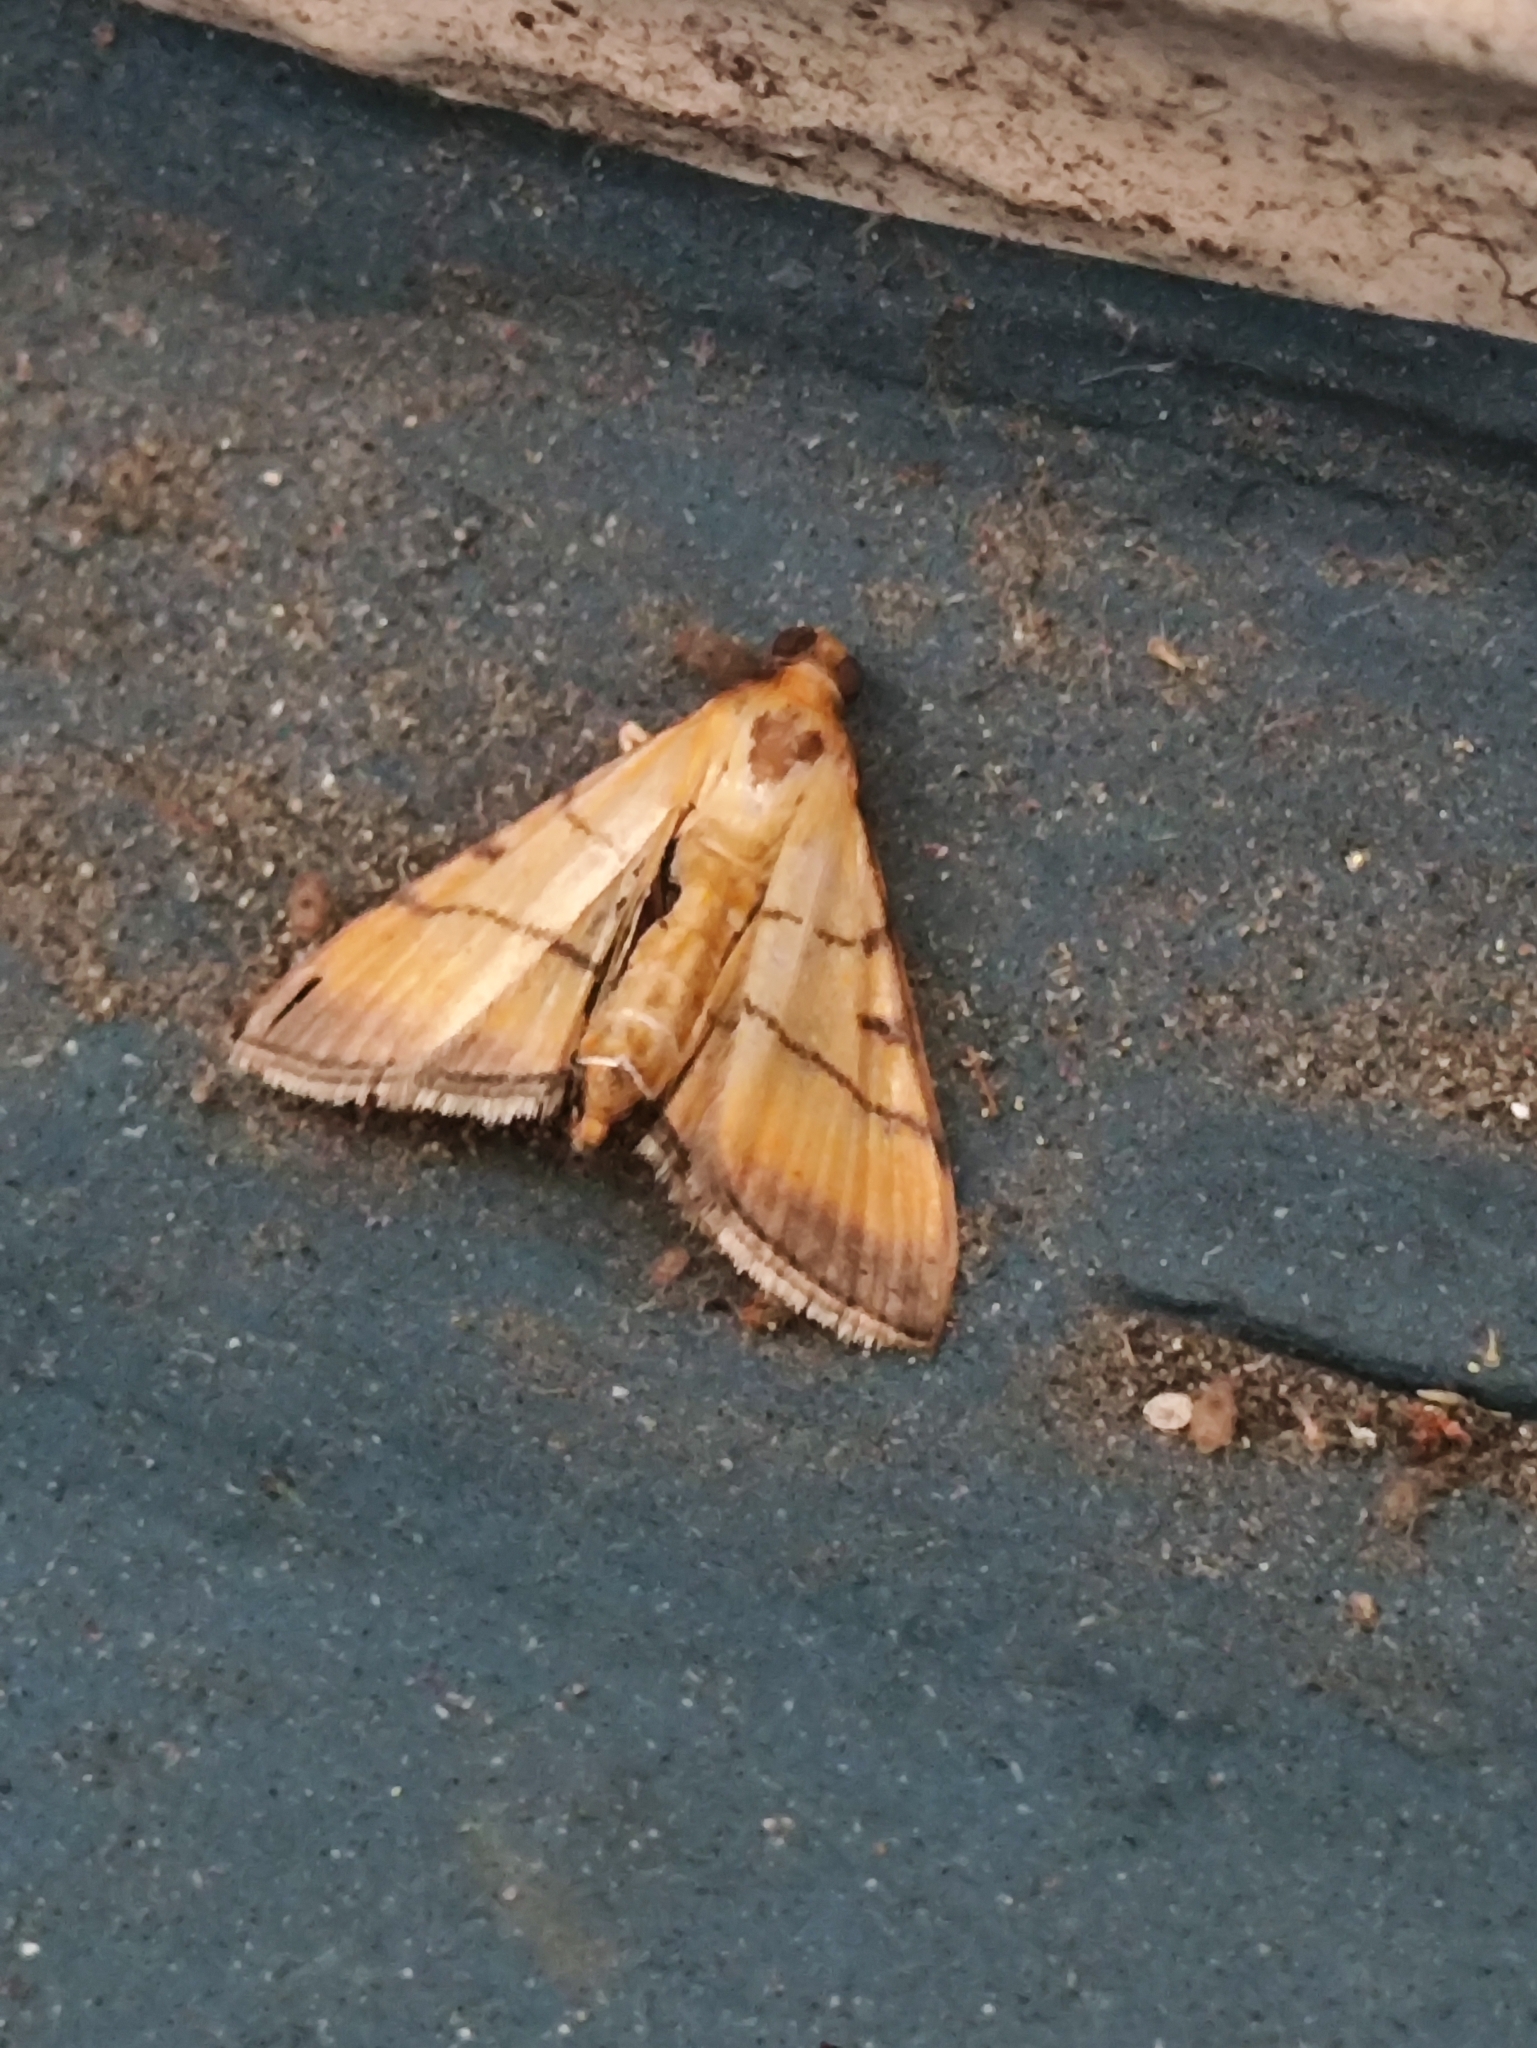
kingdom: Animalia
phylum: Arthropoda
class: Insecta
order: Lepidoptera
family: Crambidae
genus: Cnaphalocrocis
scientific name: Cnaphalocrocis medinalis
